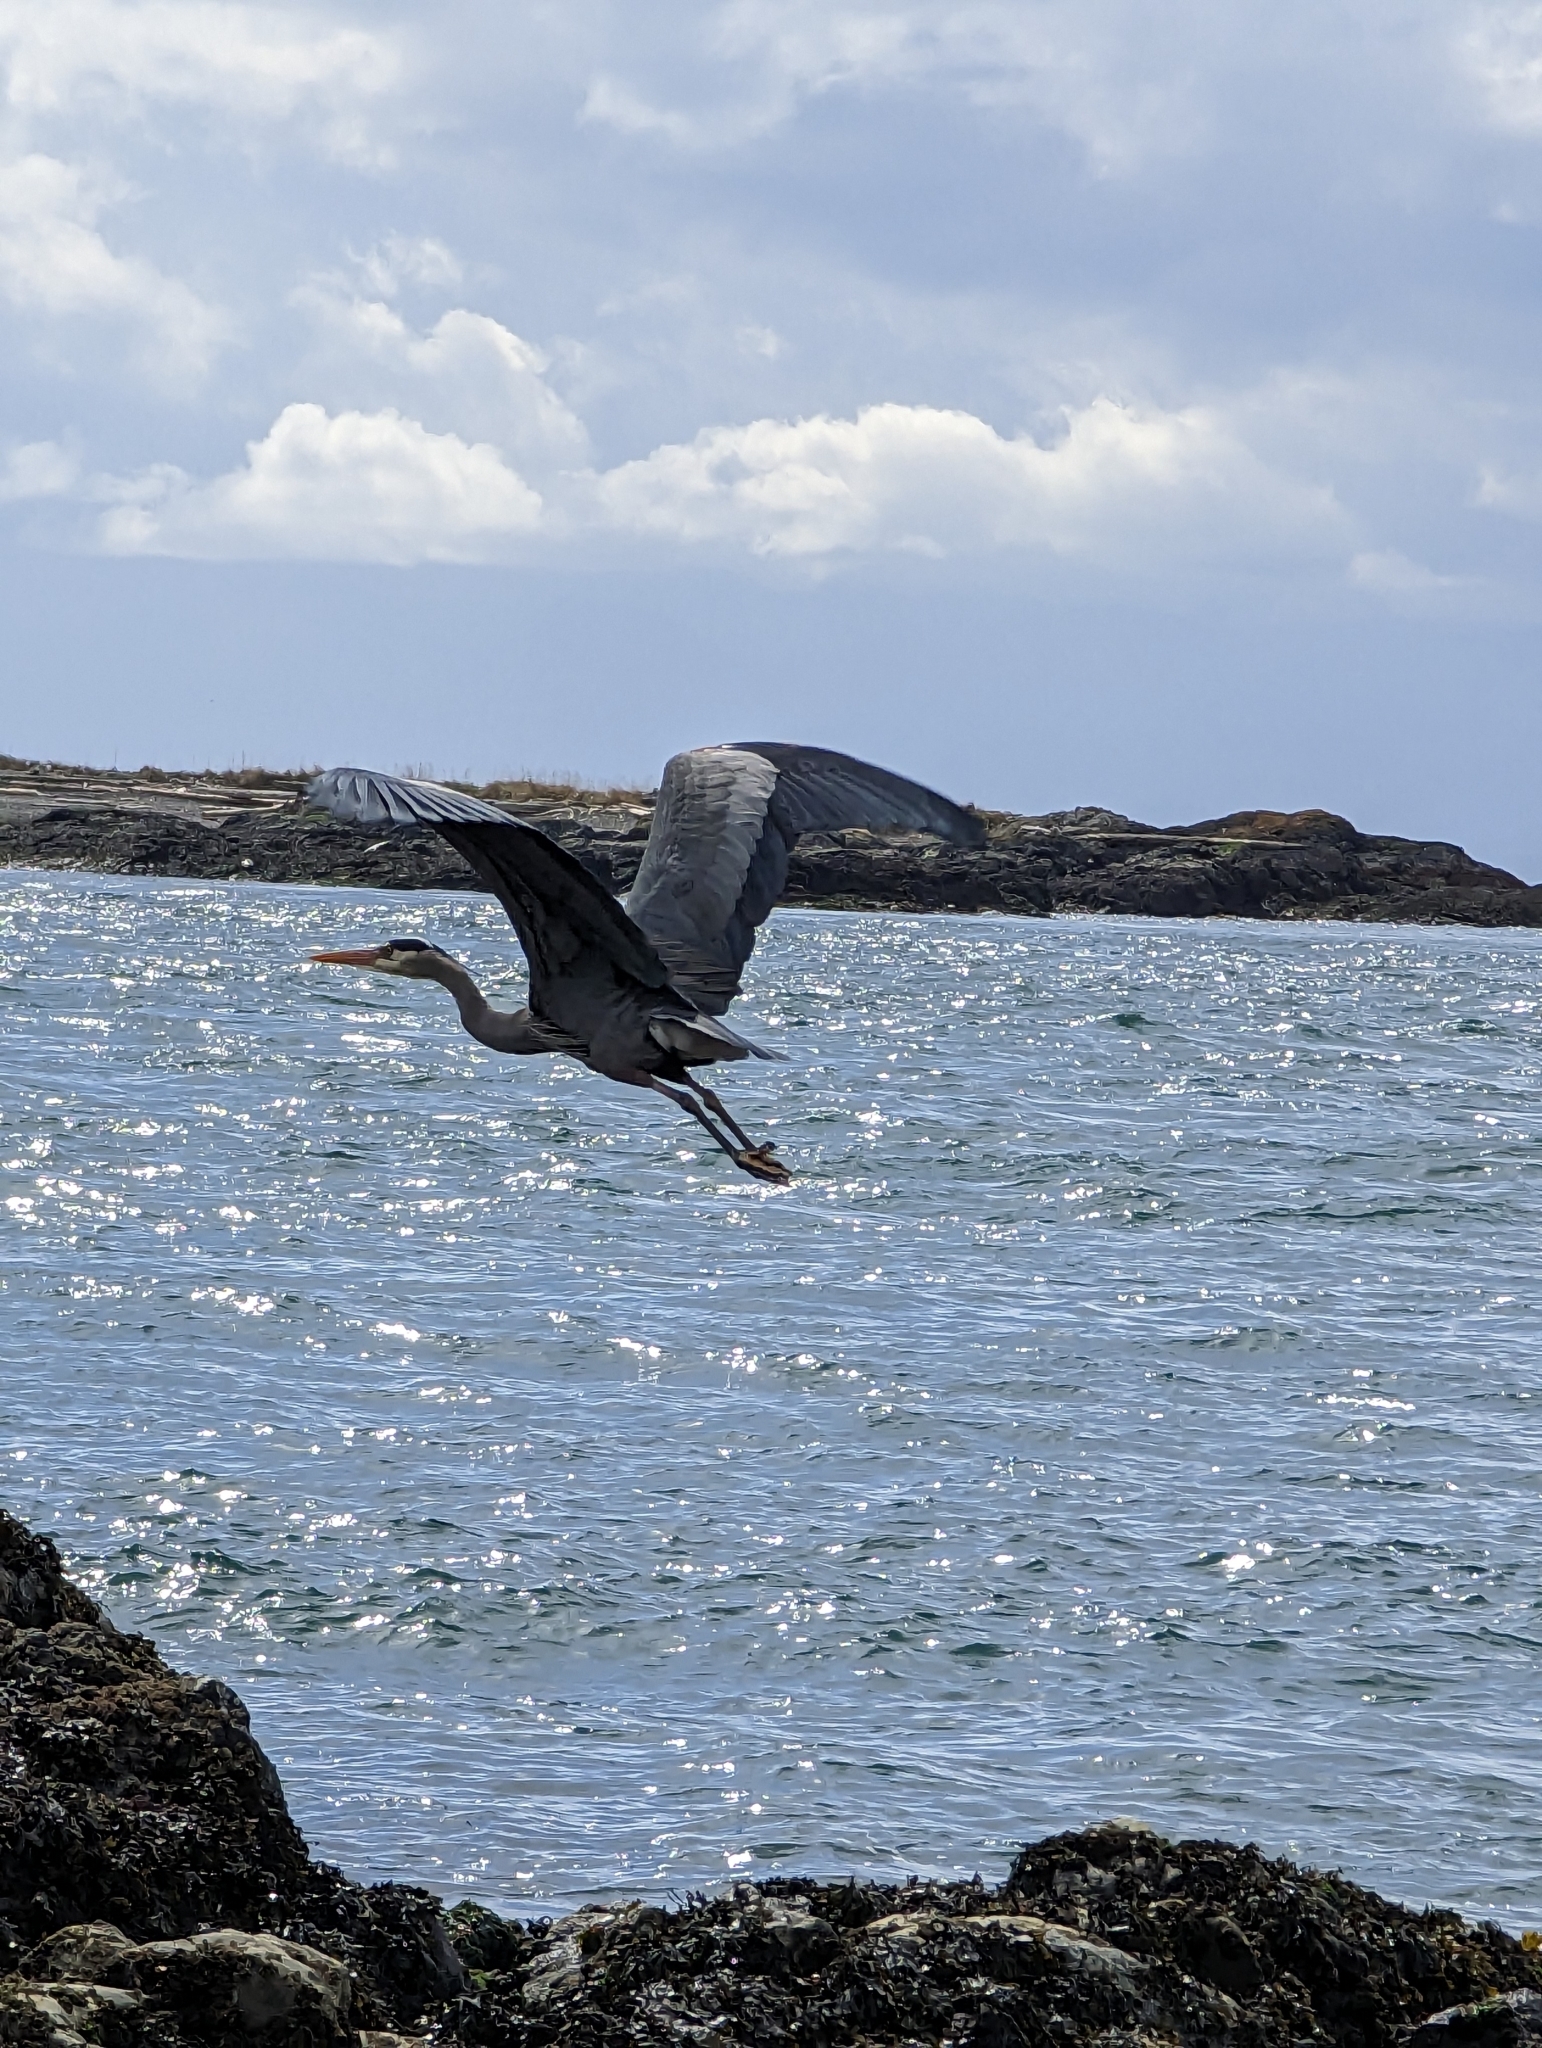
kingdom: Animalia
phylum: Chordata
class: Aves
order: Pelecaniformes
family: Ardeidae
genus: Ardea
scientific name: Ardea herodias
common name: Great blue heron
